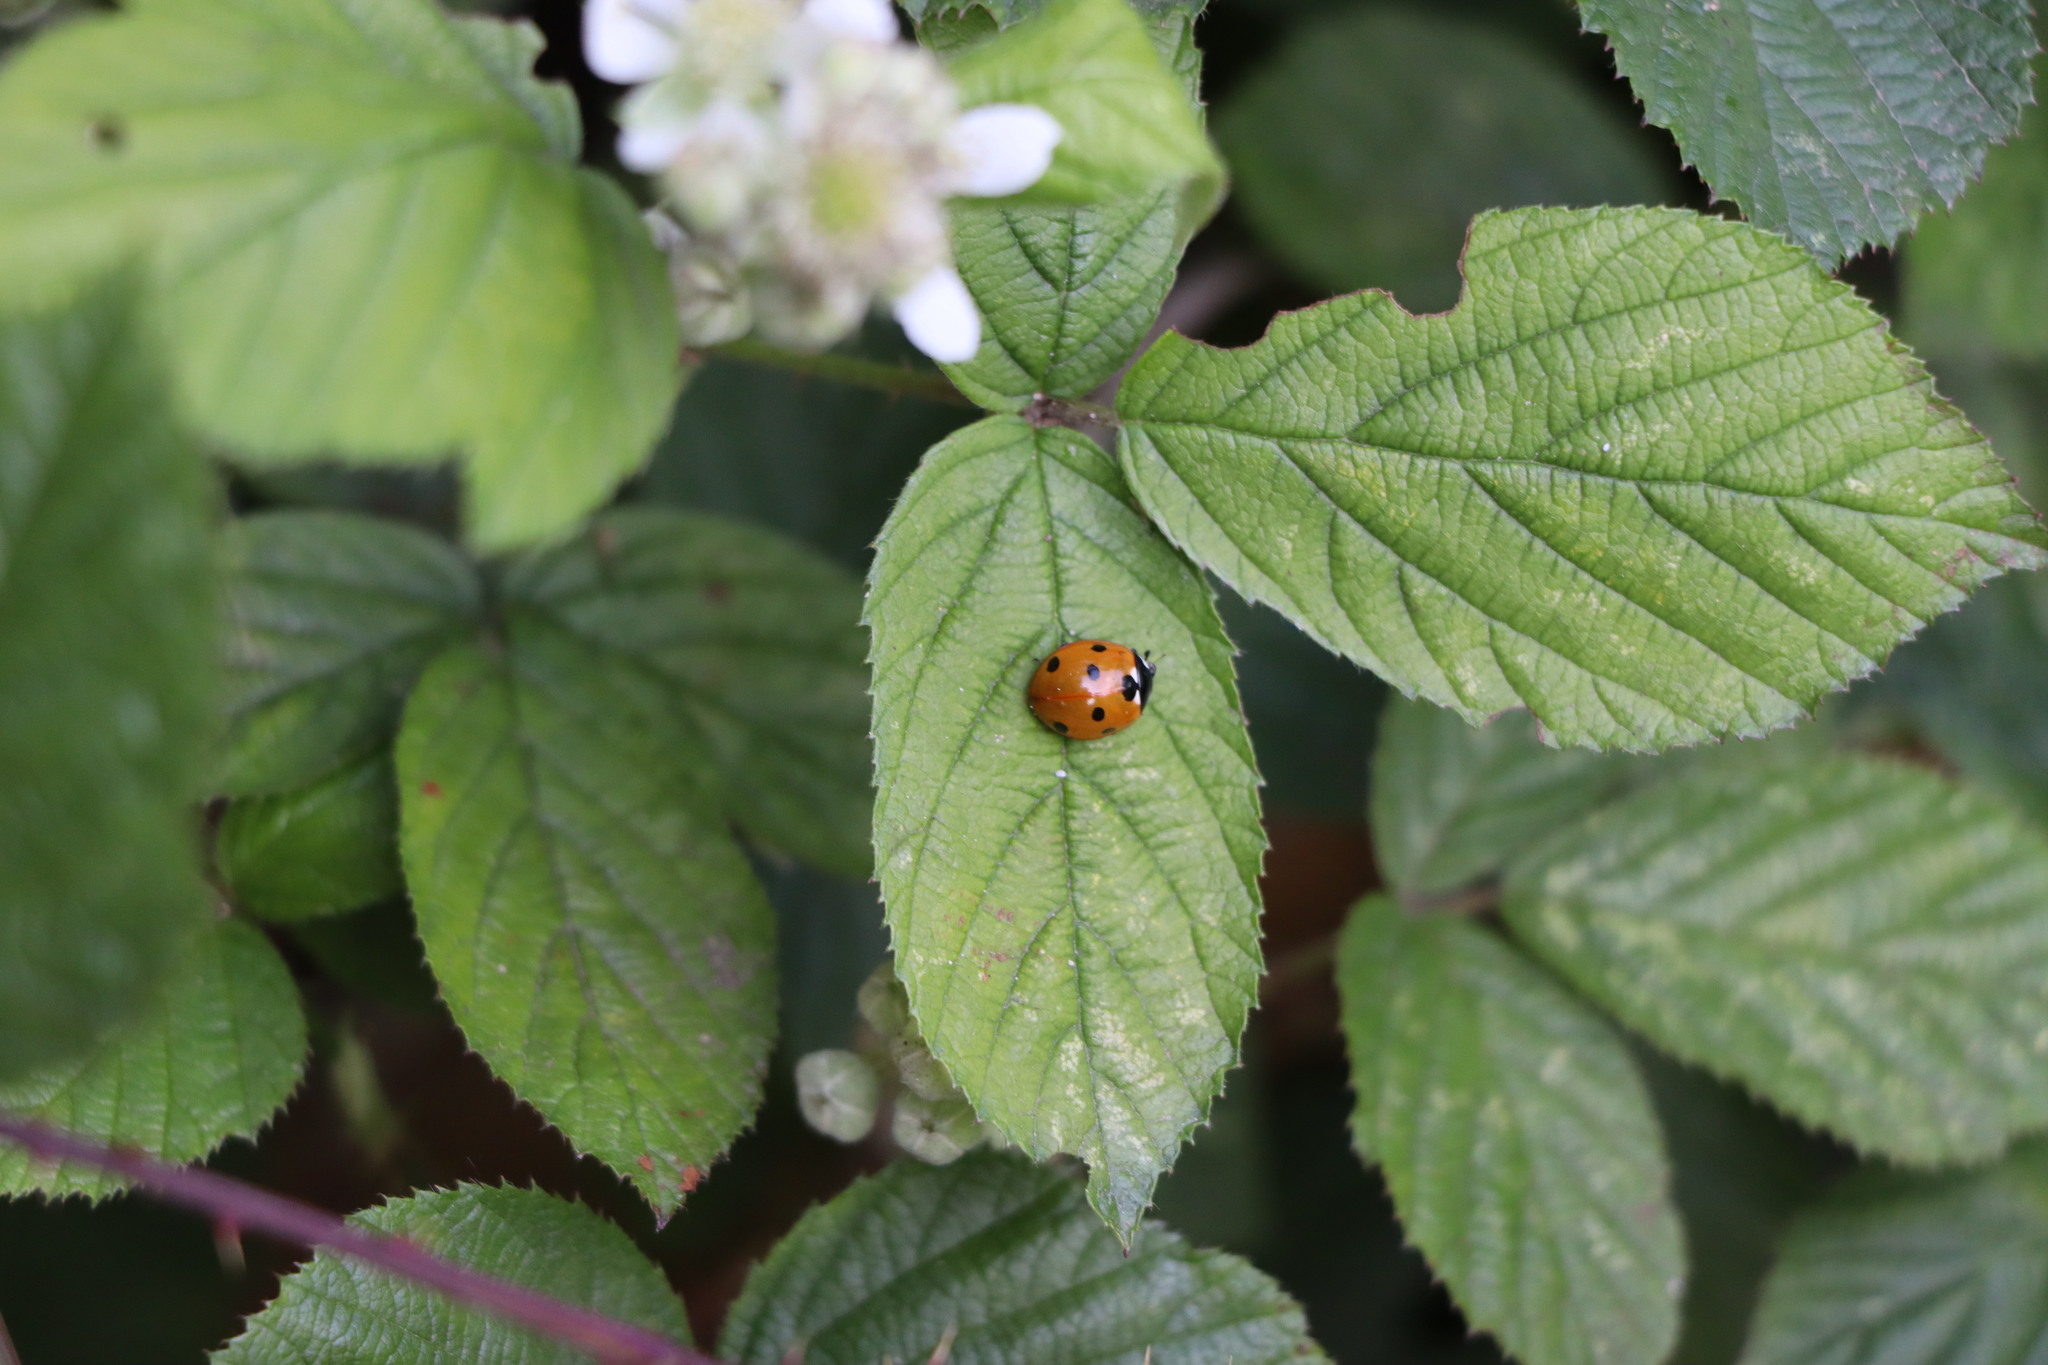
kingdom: Animalia
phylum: Arthropoda
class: Insecta
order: Coleoptera
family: Coccinellidae
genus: Coccinella
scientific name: Coccinella septempunctata
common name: Sevenspotted lady beetle
